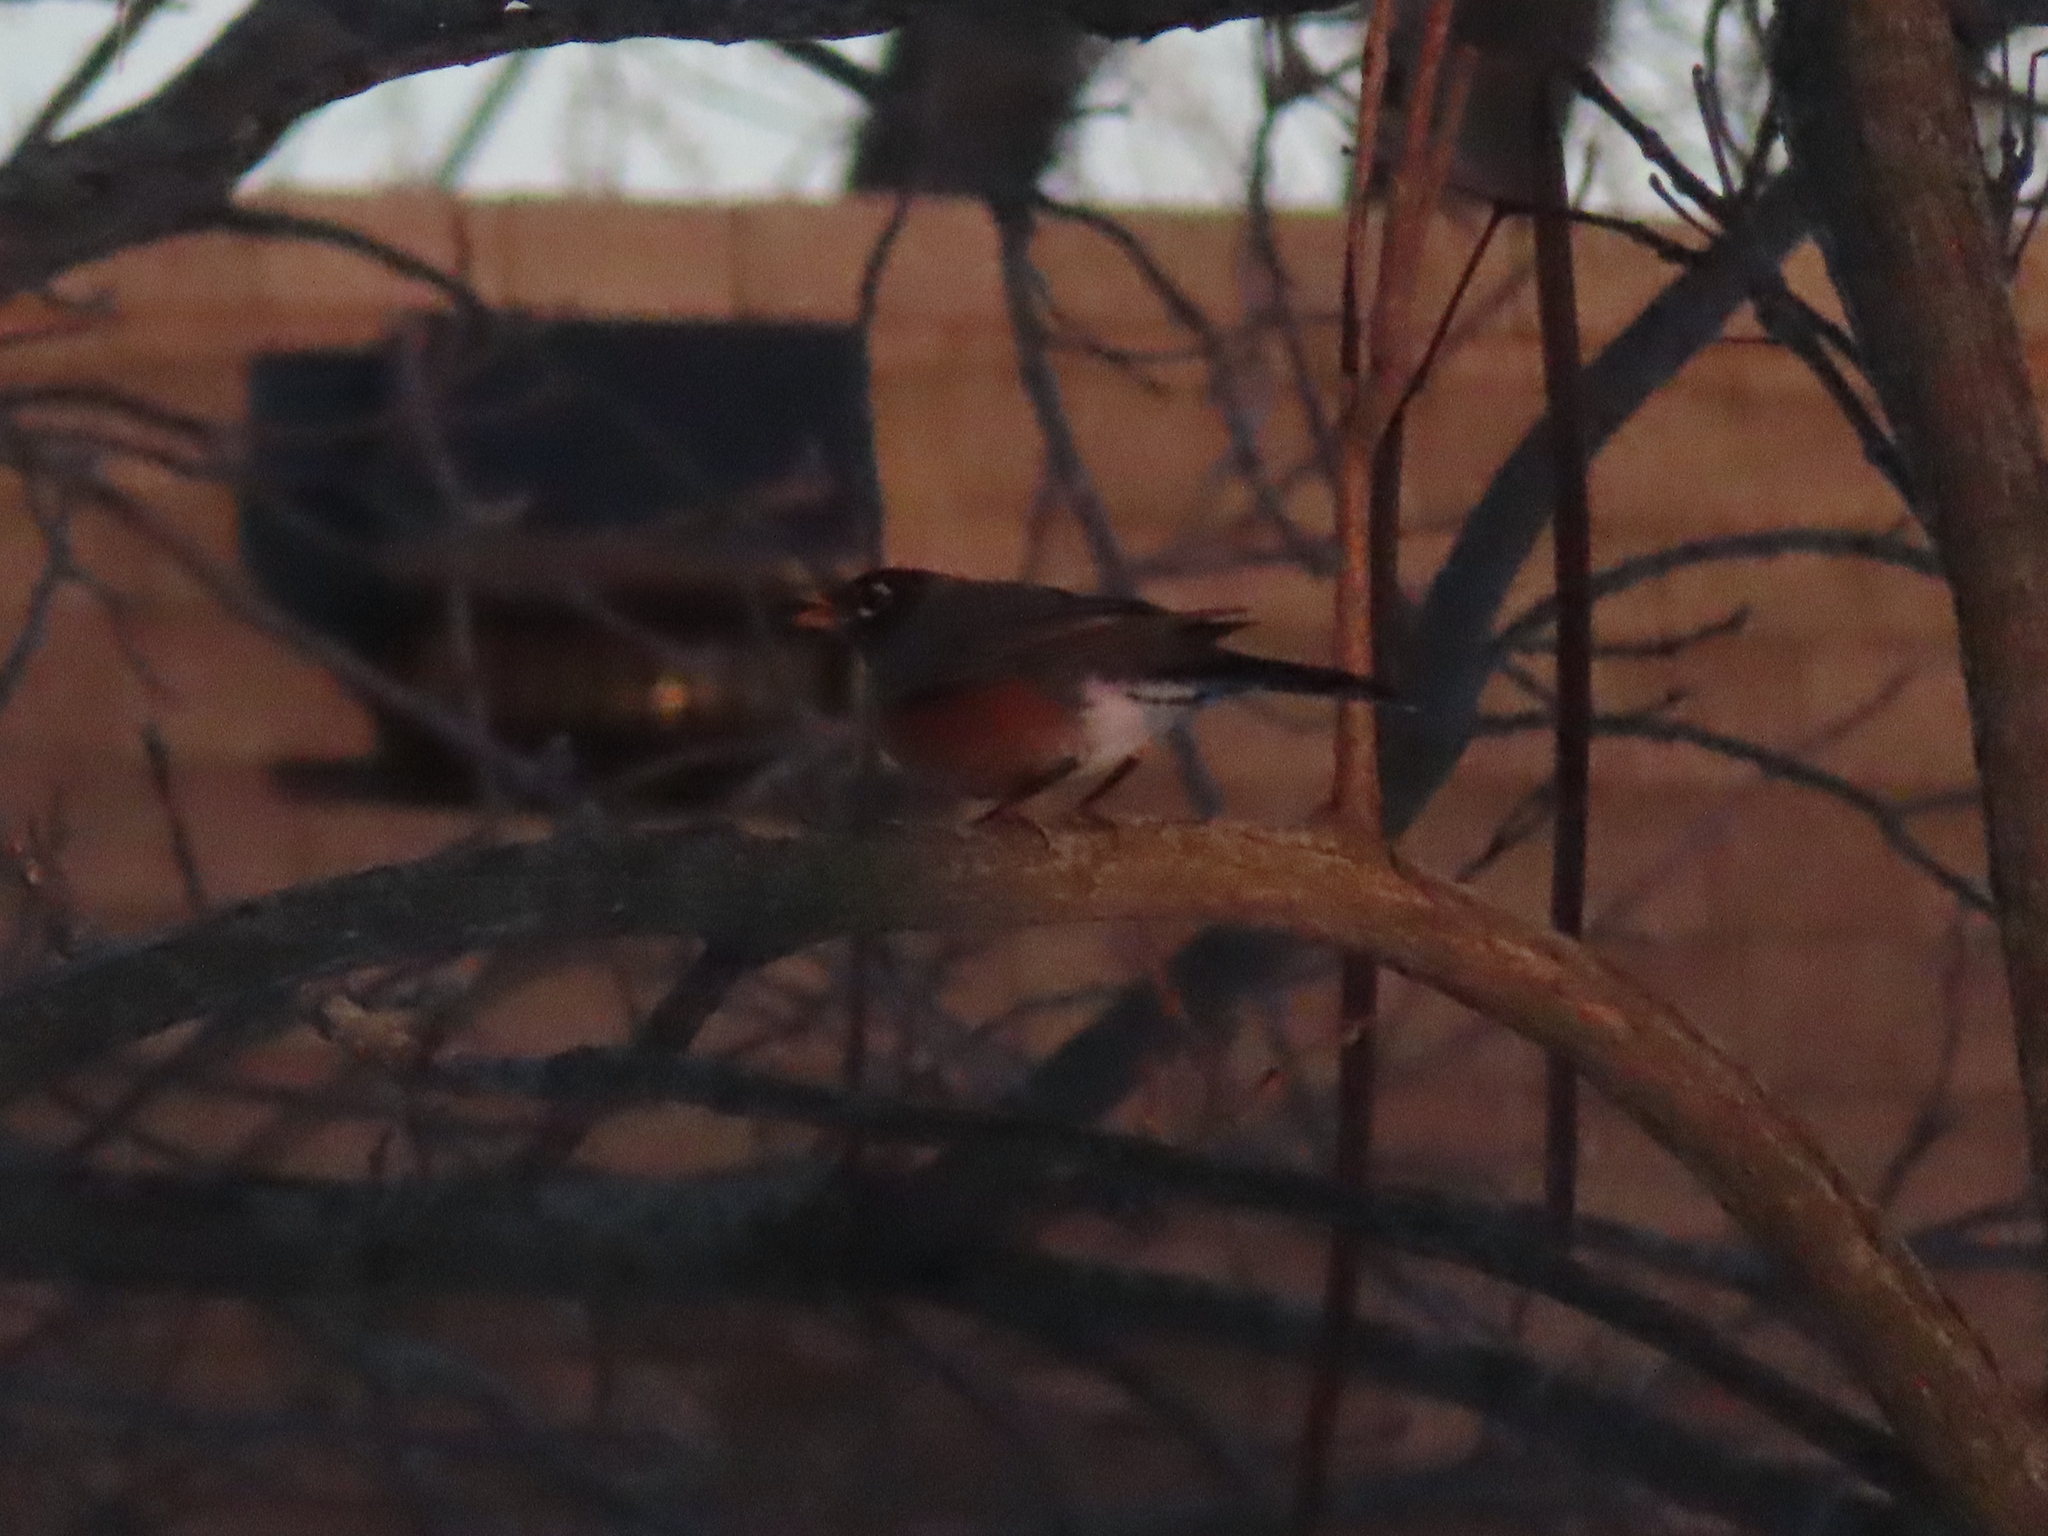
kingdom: Animalia
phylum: Chordata
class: Aves
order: Passeriformes
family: Turdidae
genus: Turdus
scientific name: Turdus migratorius
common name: American robin
